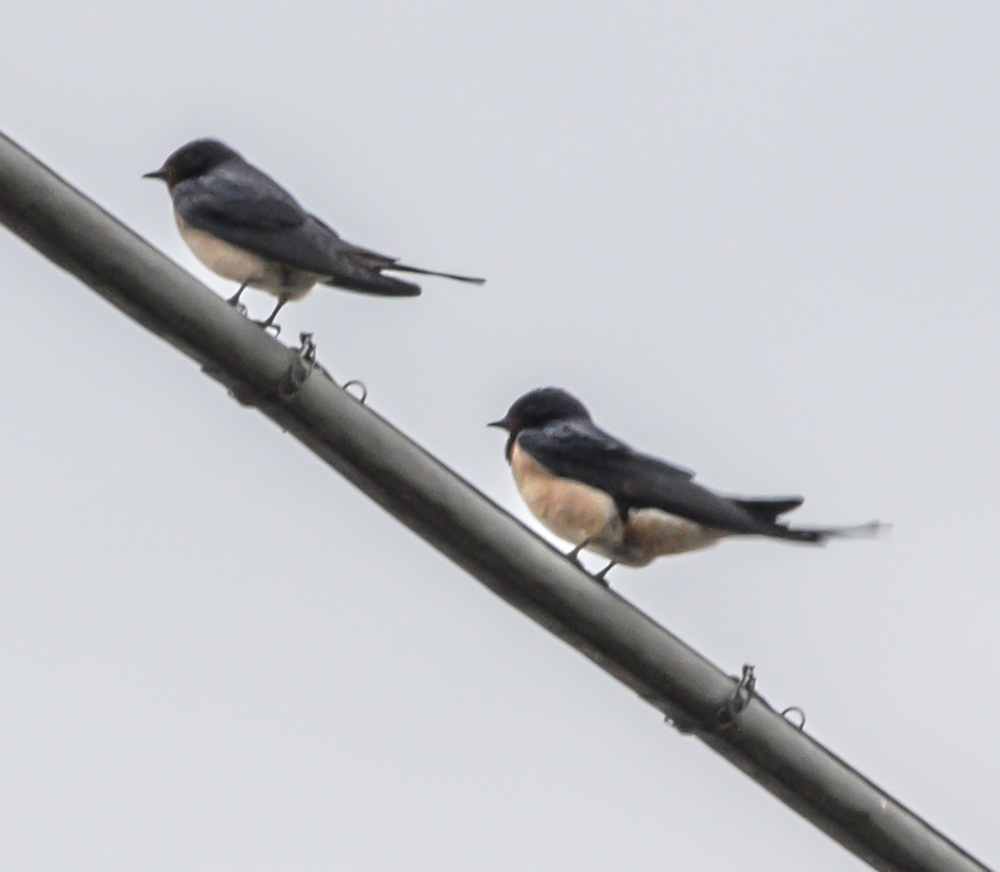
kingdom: Animalia
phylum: Chordata
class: Aves
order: Passeriformes
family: Hirundinidae
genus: Hirundo
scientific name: Hirundo rustica
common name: Barn swallow
